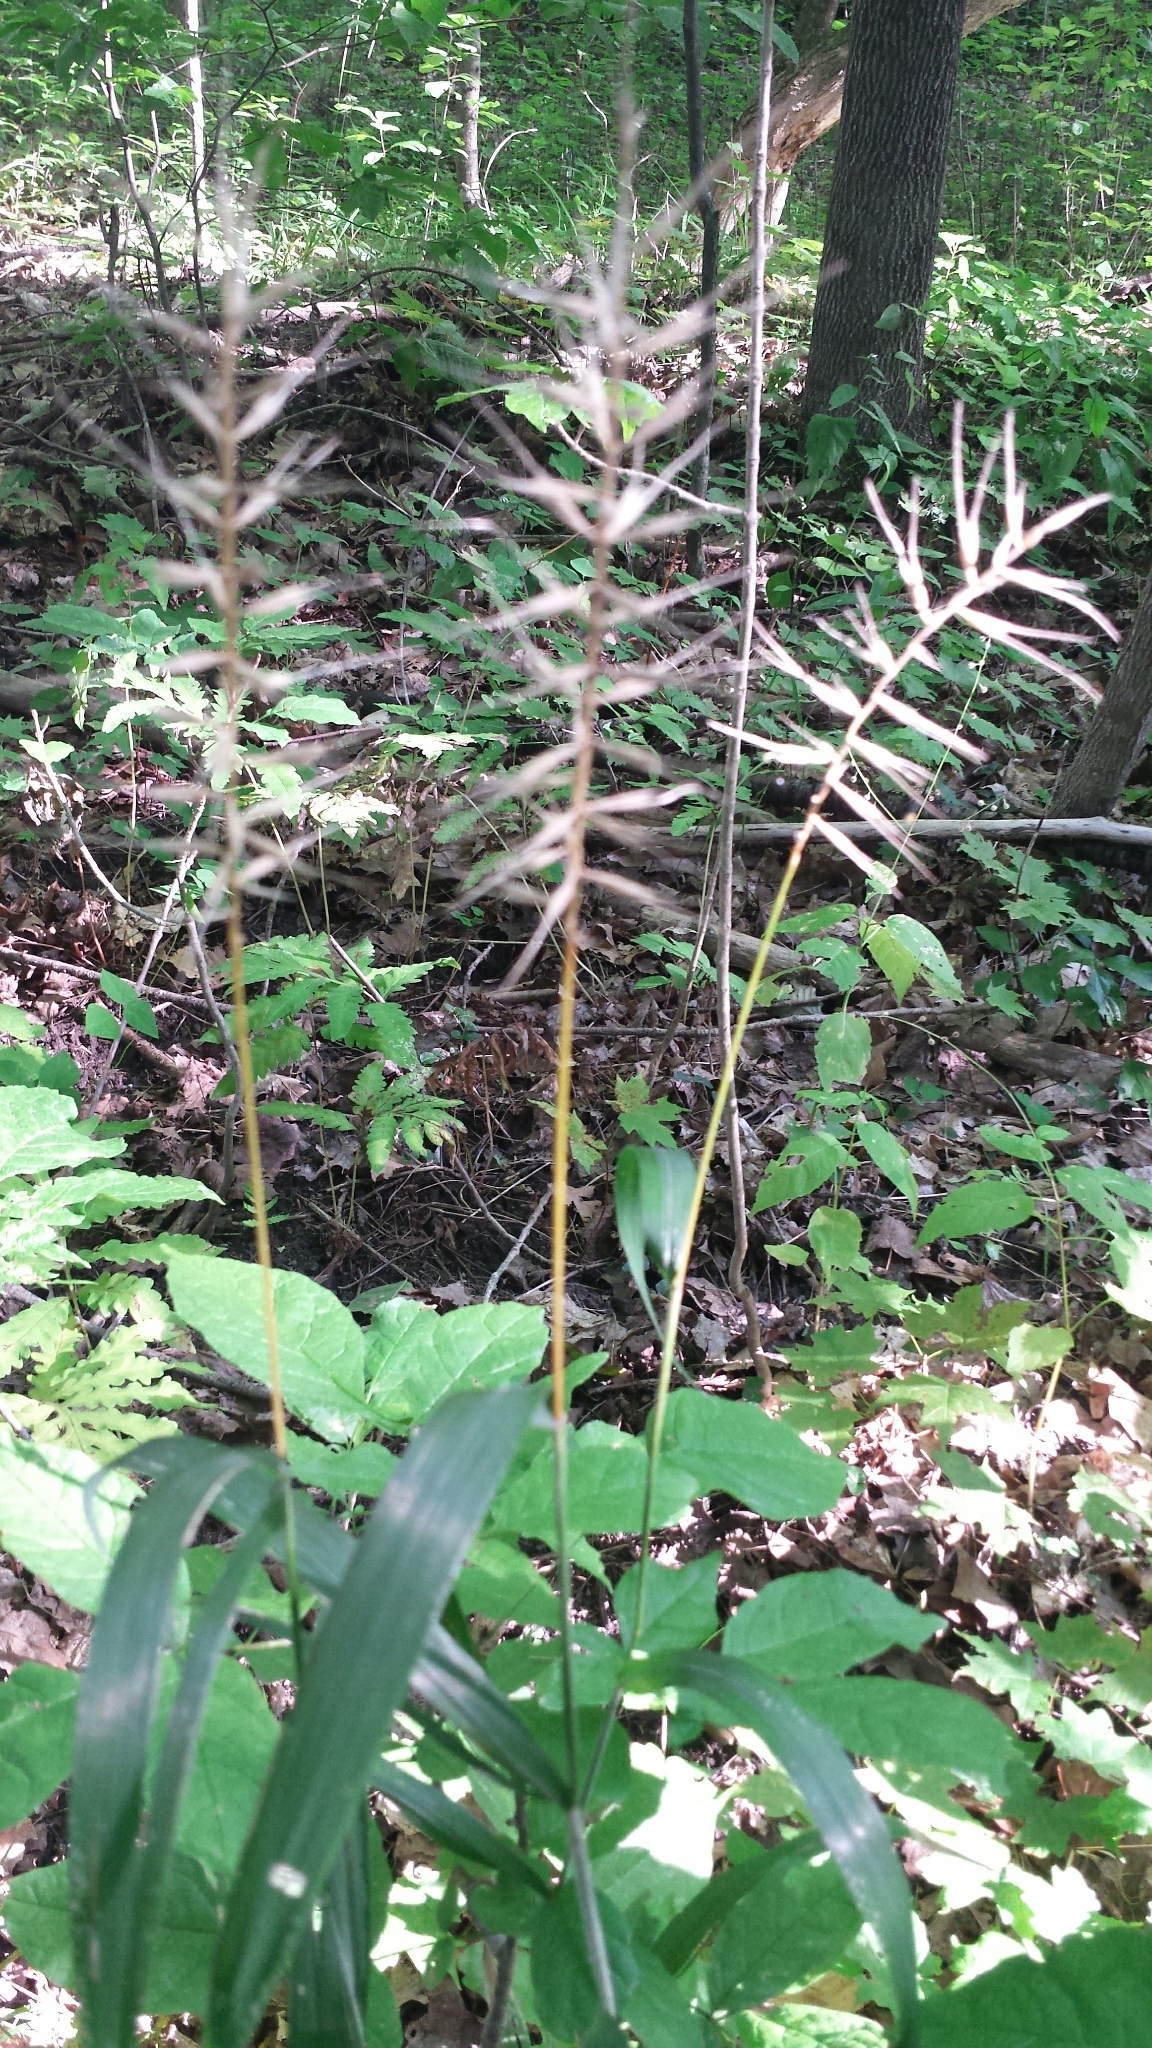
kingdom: Plantae
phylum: Tracheophyta
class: Liliopsida
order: Poales
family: Poaceae
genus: Elymus
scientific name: Elymus hystrix
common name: Bottlebrush grass
